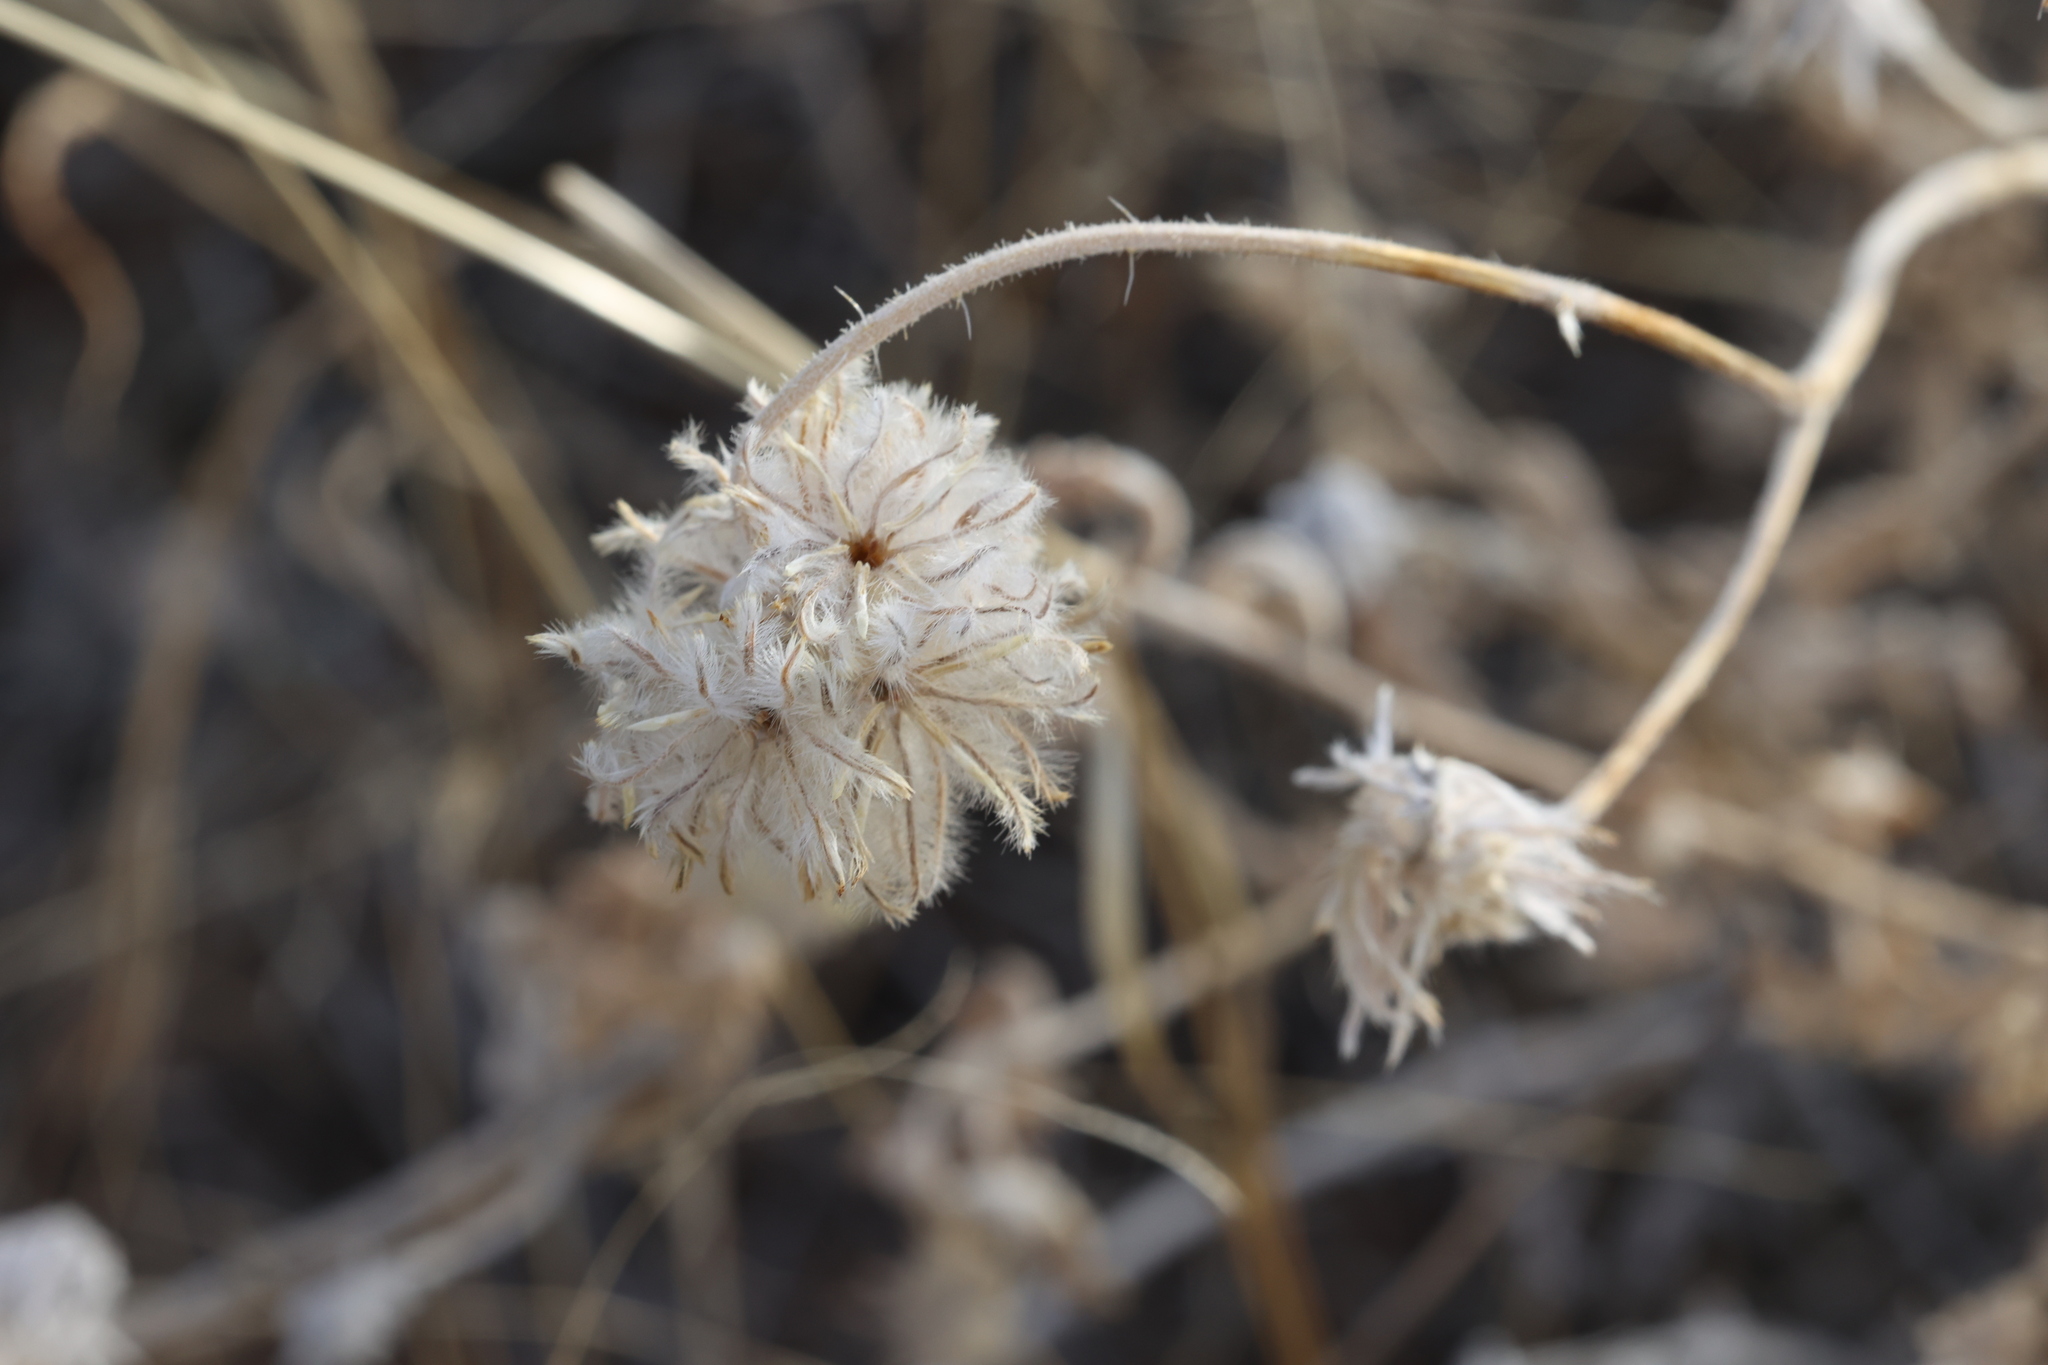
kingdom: Plantae
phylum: Tracheophyta
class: Magnoliopsida
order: Cornales
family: Loasaceae
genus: Cevallia
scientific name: Cevallia sinuata
